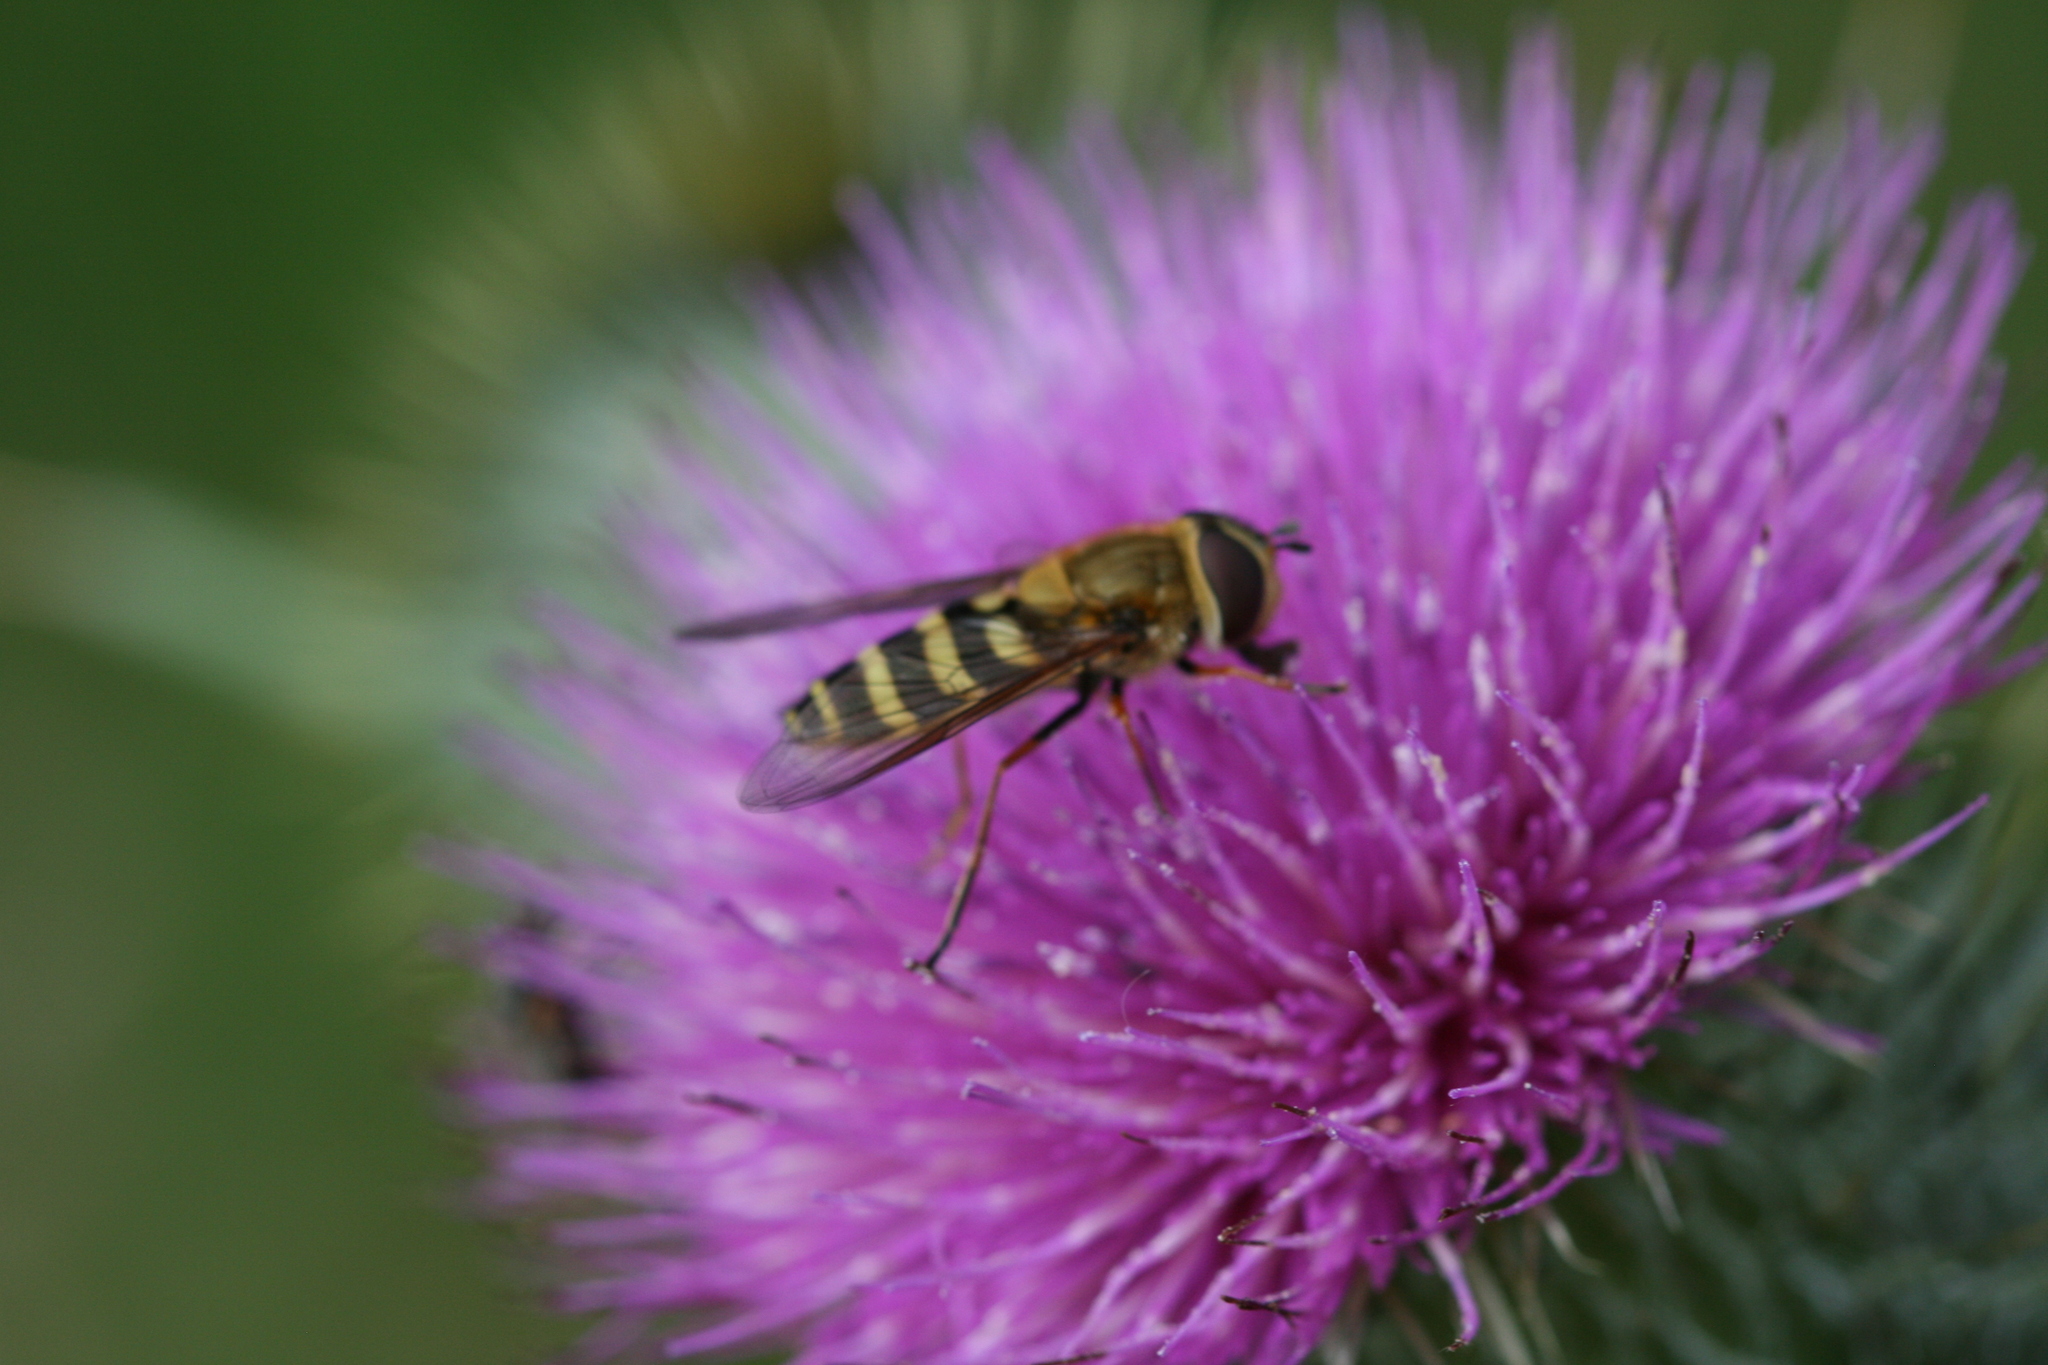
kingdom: Animalia
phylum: Arthropoda
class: Insecta
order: Diptera
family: Syrphidae
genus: Syrphus
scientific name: Syrphus
